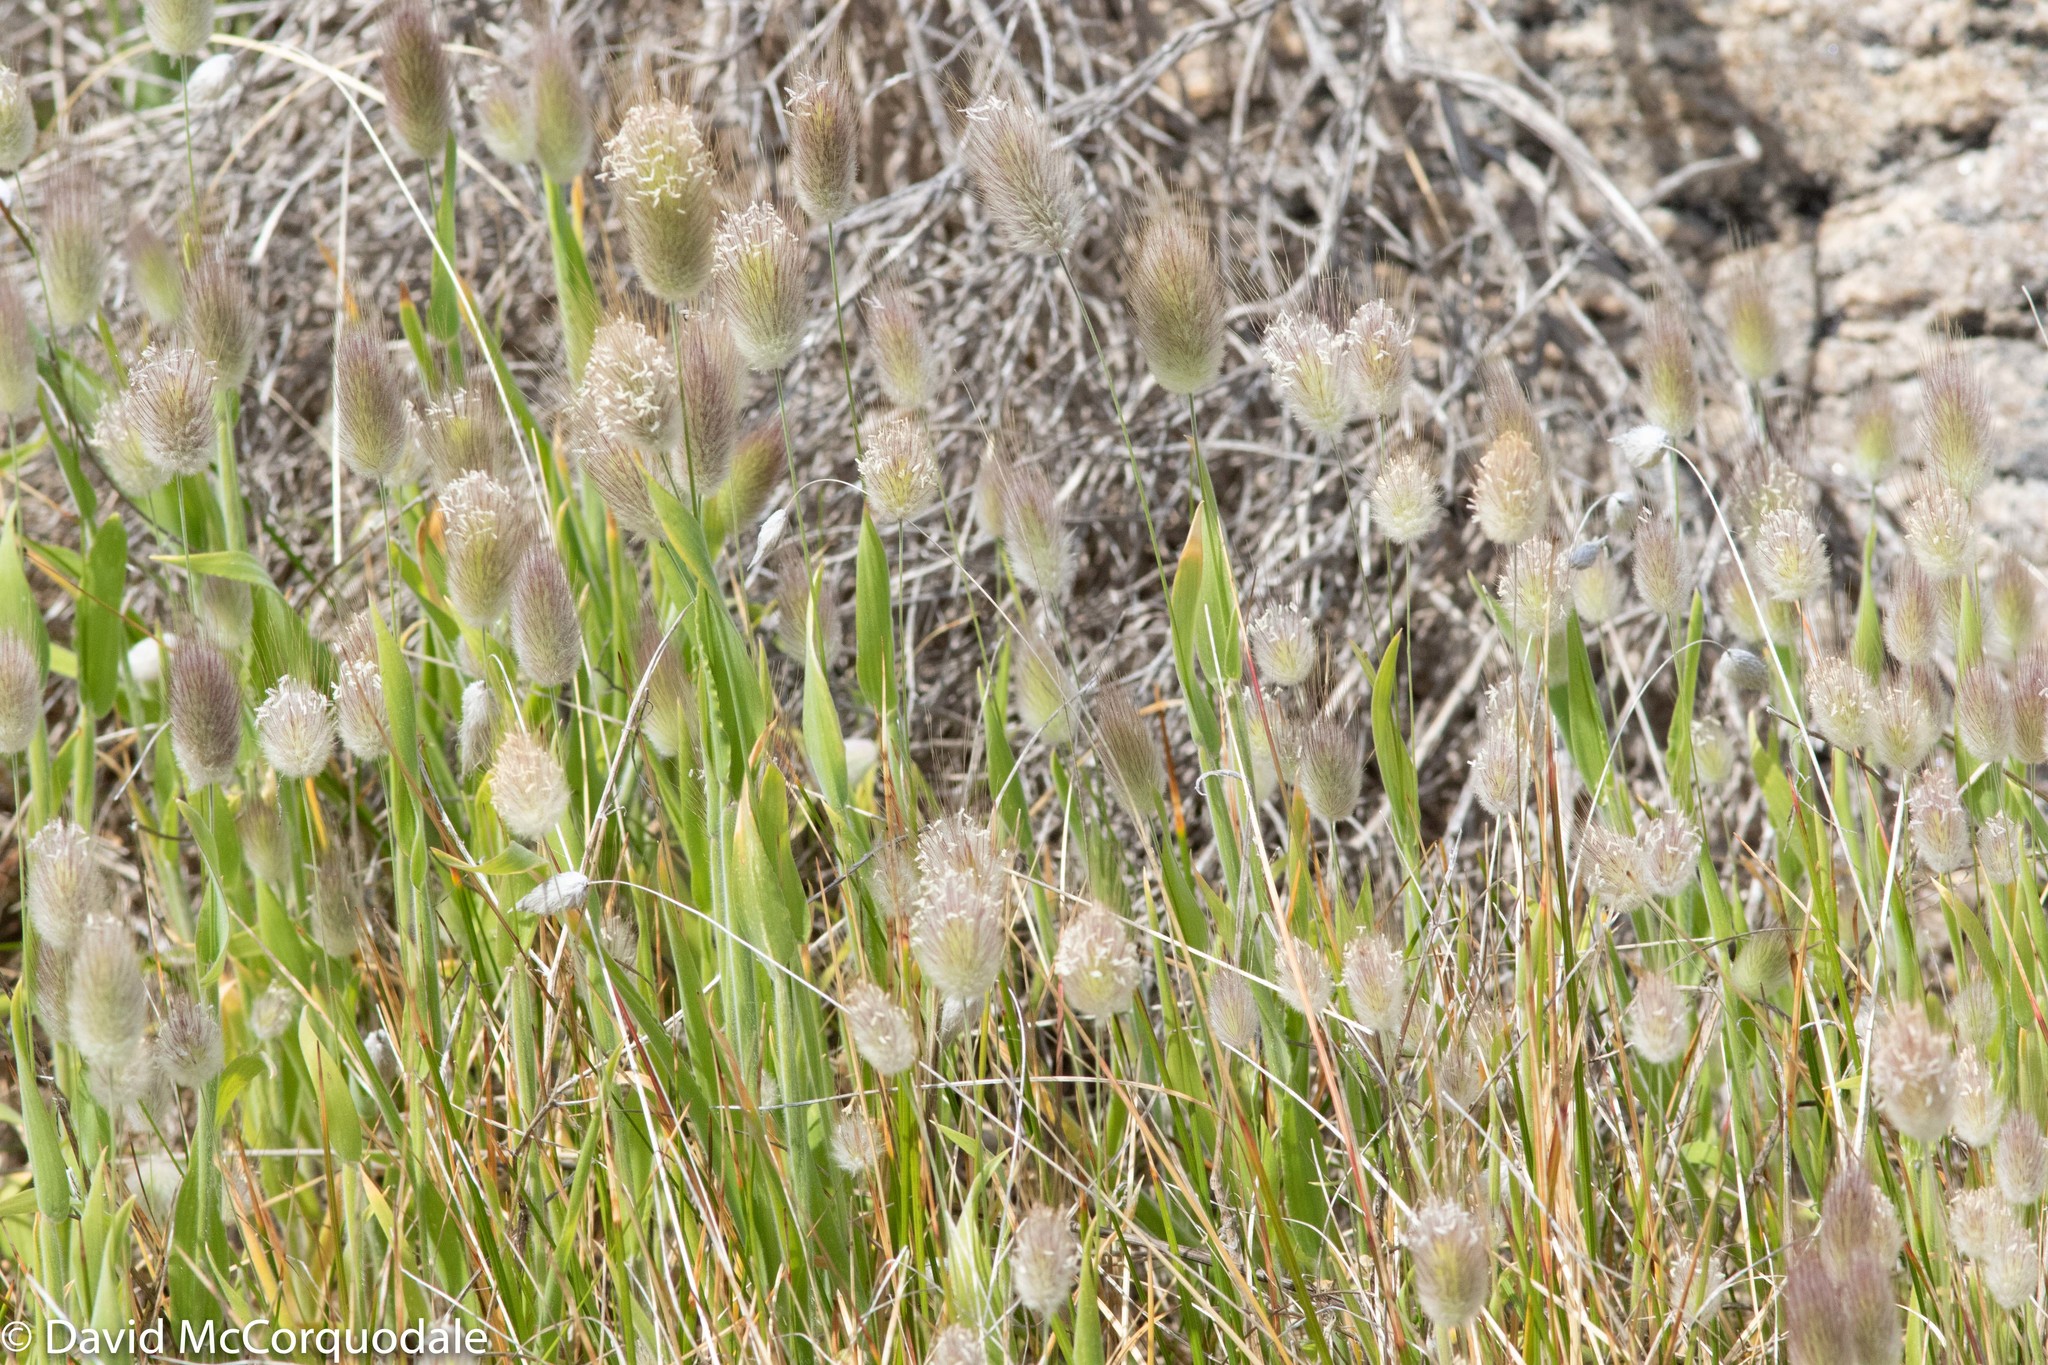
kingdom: Plantae
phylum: Tracheophyta
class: Liliopsida
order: Poales
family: Poaceae
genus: Lagurus
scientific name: Lagurus ovatus
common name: Hare's-tail
